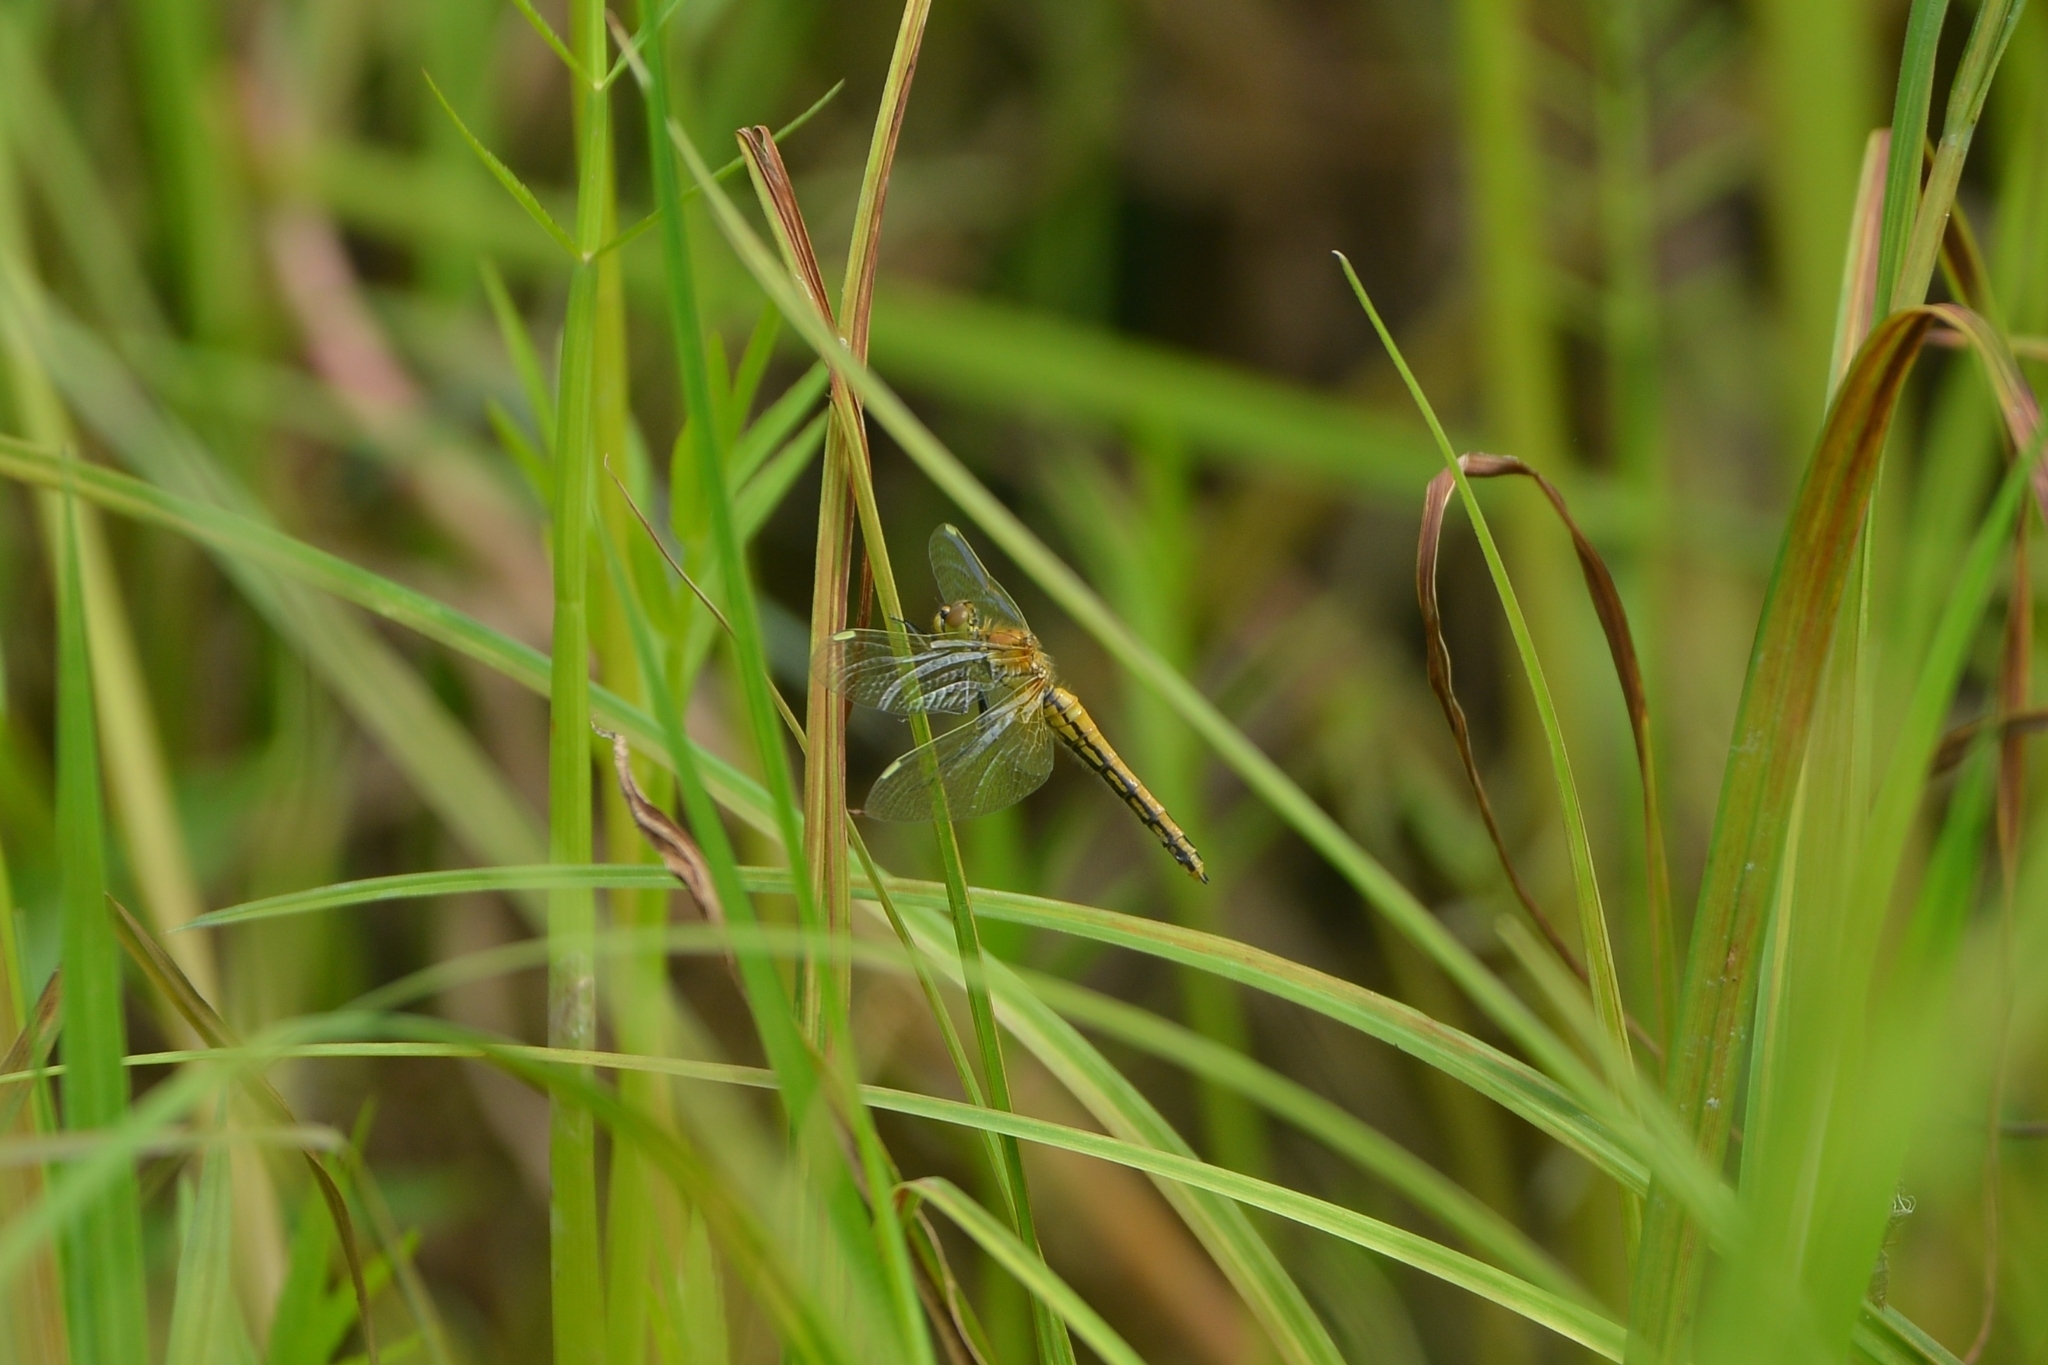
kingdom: Animalia
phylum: Arthropoda
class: Insecta
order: Odonata
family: Libellulidae
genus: Sympetrum
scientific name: Sympetrum flaveolum
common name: Yellow-winged darter
